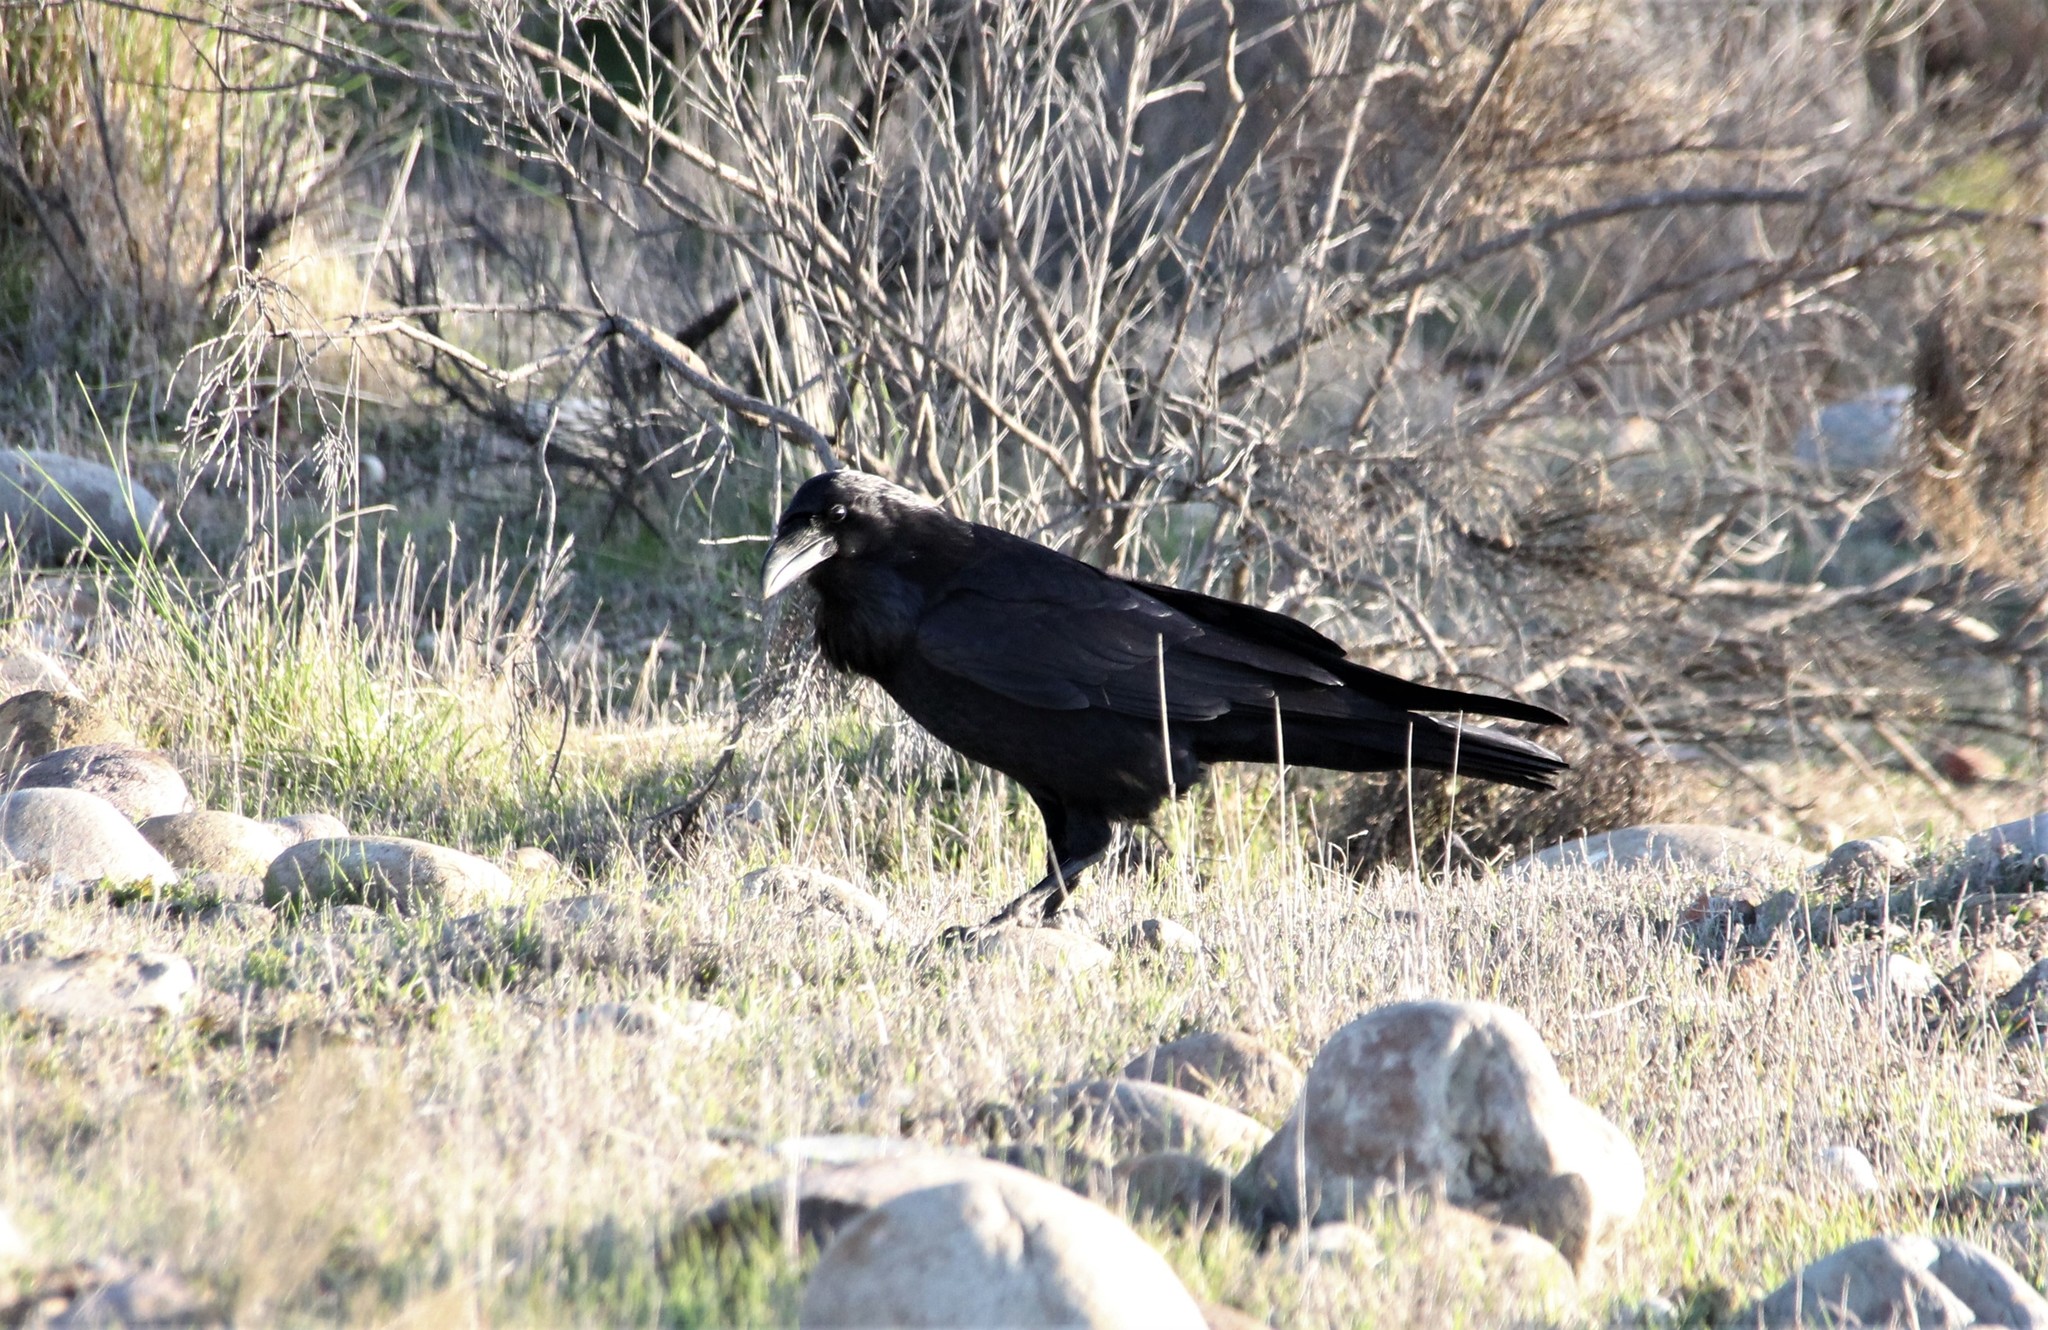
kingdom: Animalia
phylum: Chordata
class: Aves
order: Passeriformes
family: Corvidae
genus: Corvus
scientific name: Corvus corax
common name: Common raven
